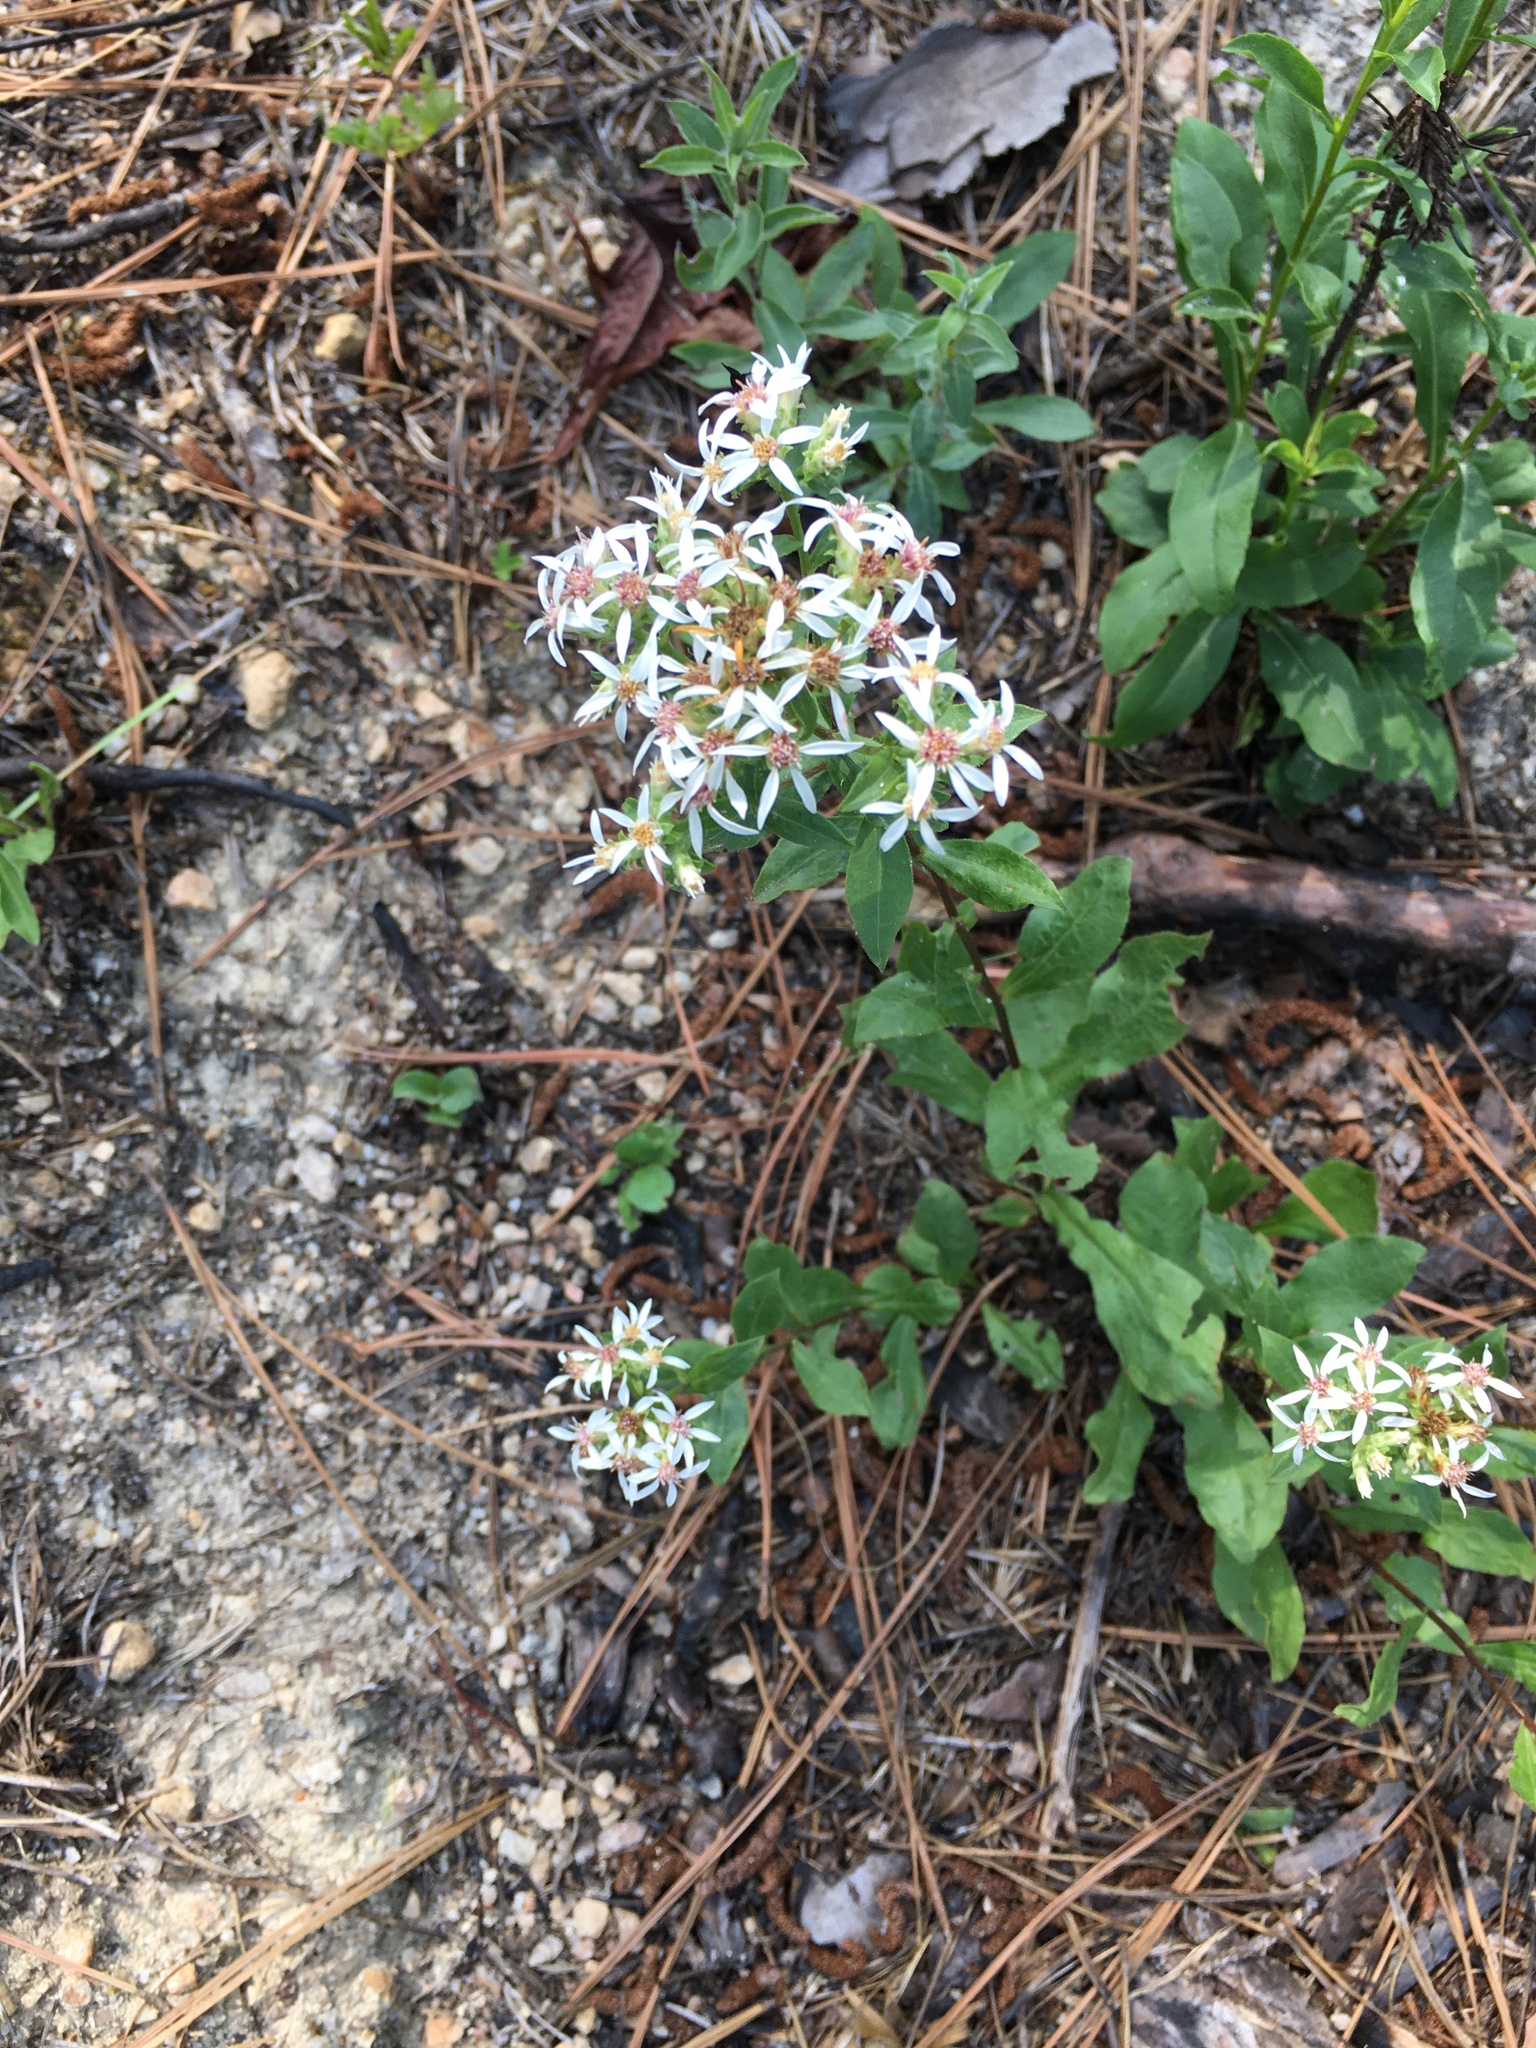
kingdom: Plantae
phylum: Tracheophyta
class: Magnoliopsida
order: Asterales
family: Asteraceae
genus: Sericocarpus
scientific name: Sericocarpus asteroides
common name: Toothed white-top aster
